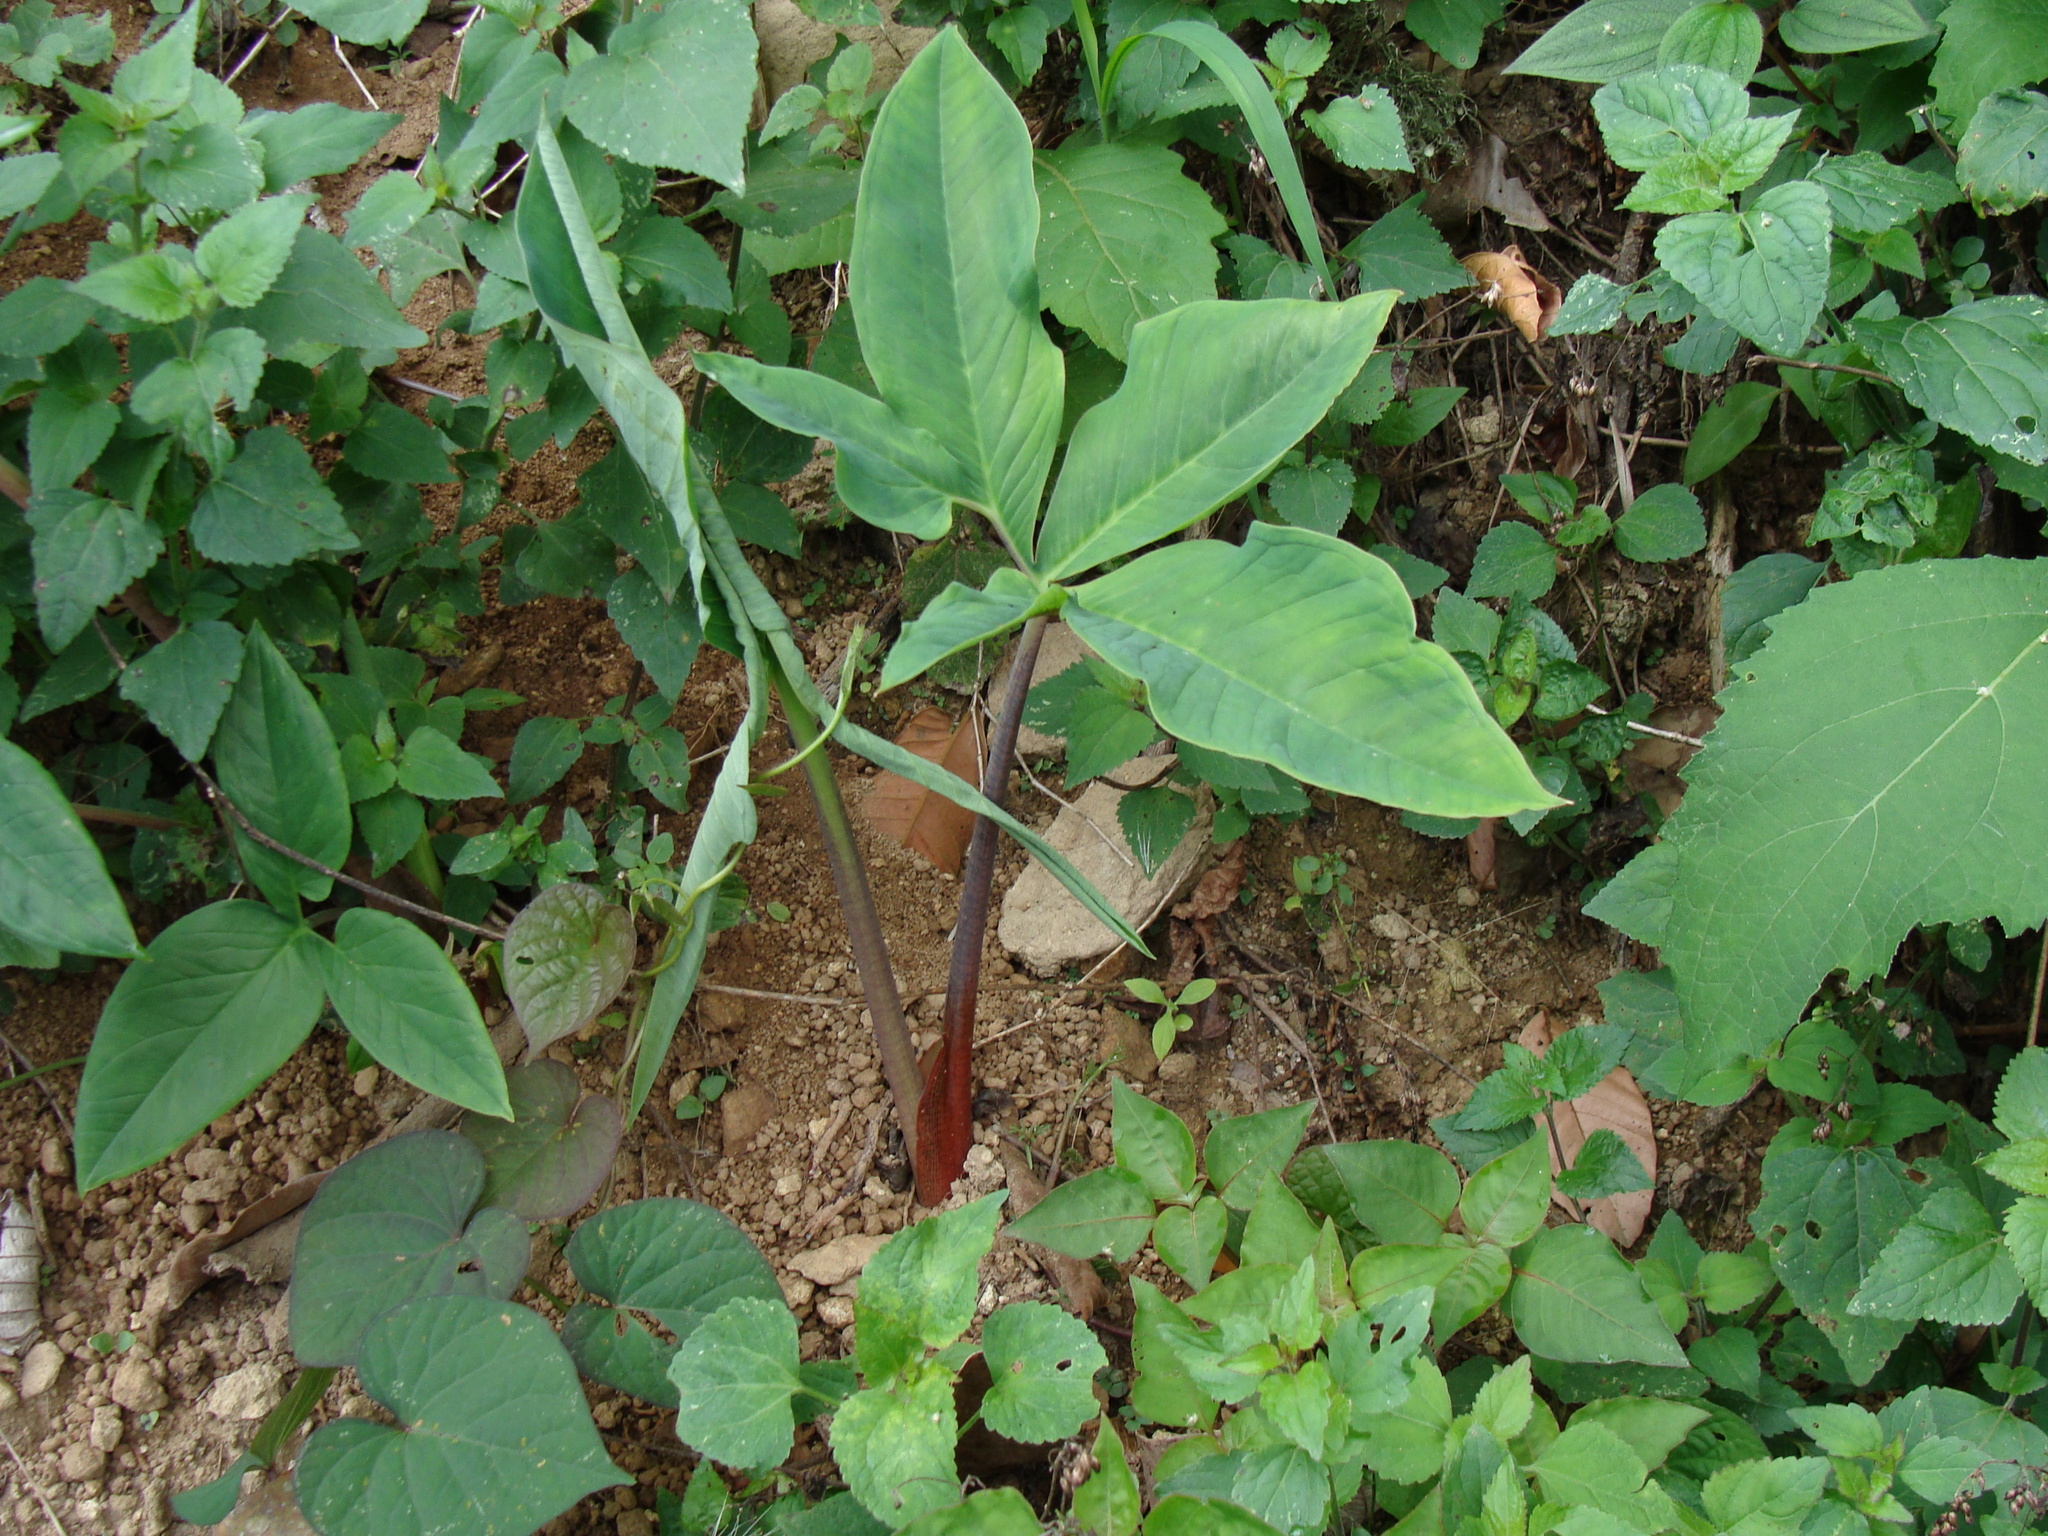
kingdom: Plantae
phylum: Tracheophyta
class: Liliopsida
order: Alismatales
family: Araceae
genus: Xanthosoma
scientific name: Xanthosoma wendlandii
